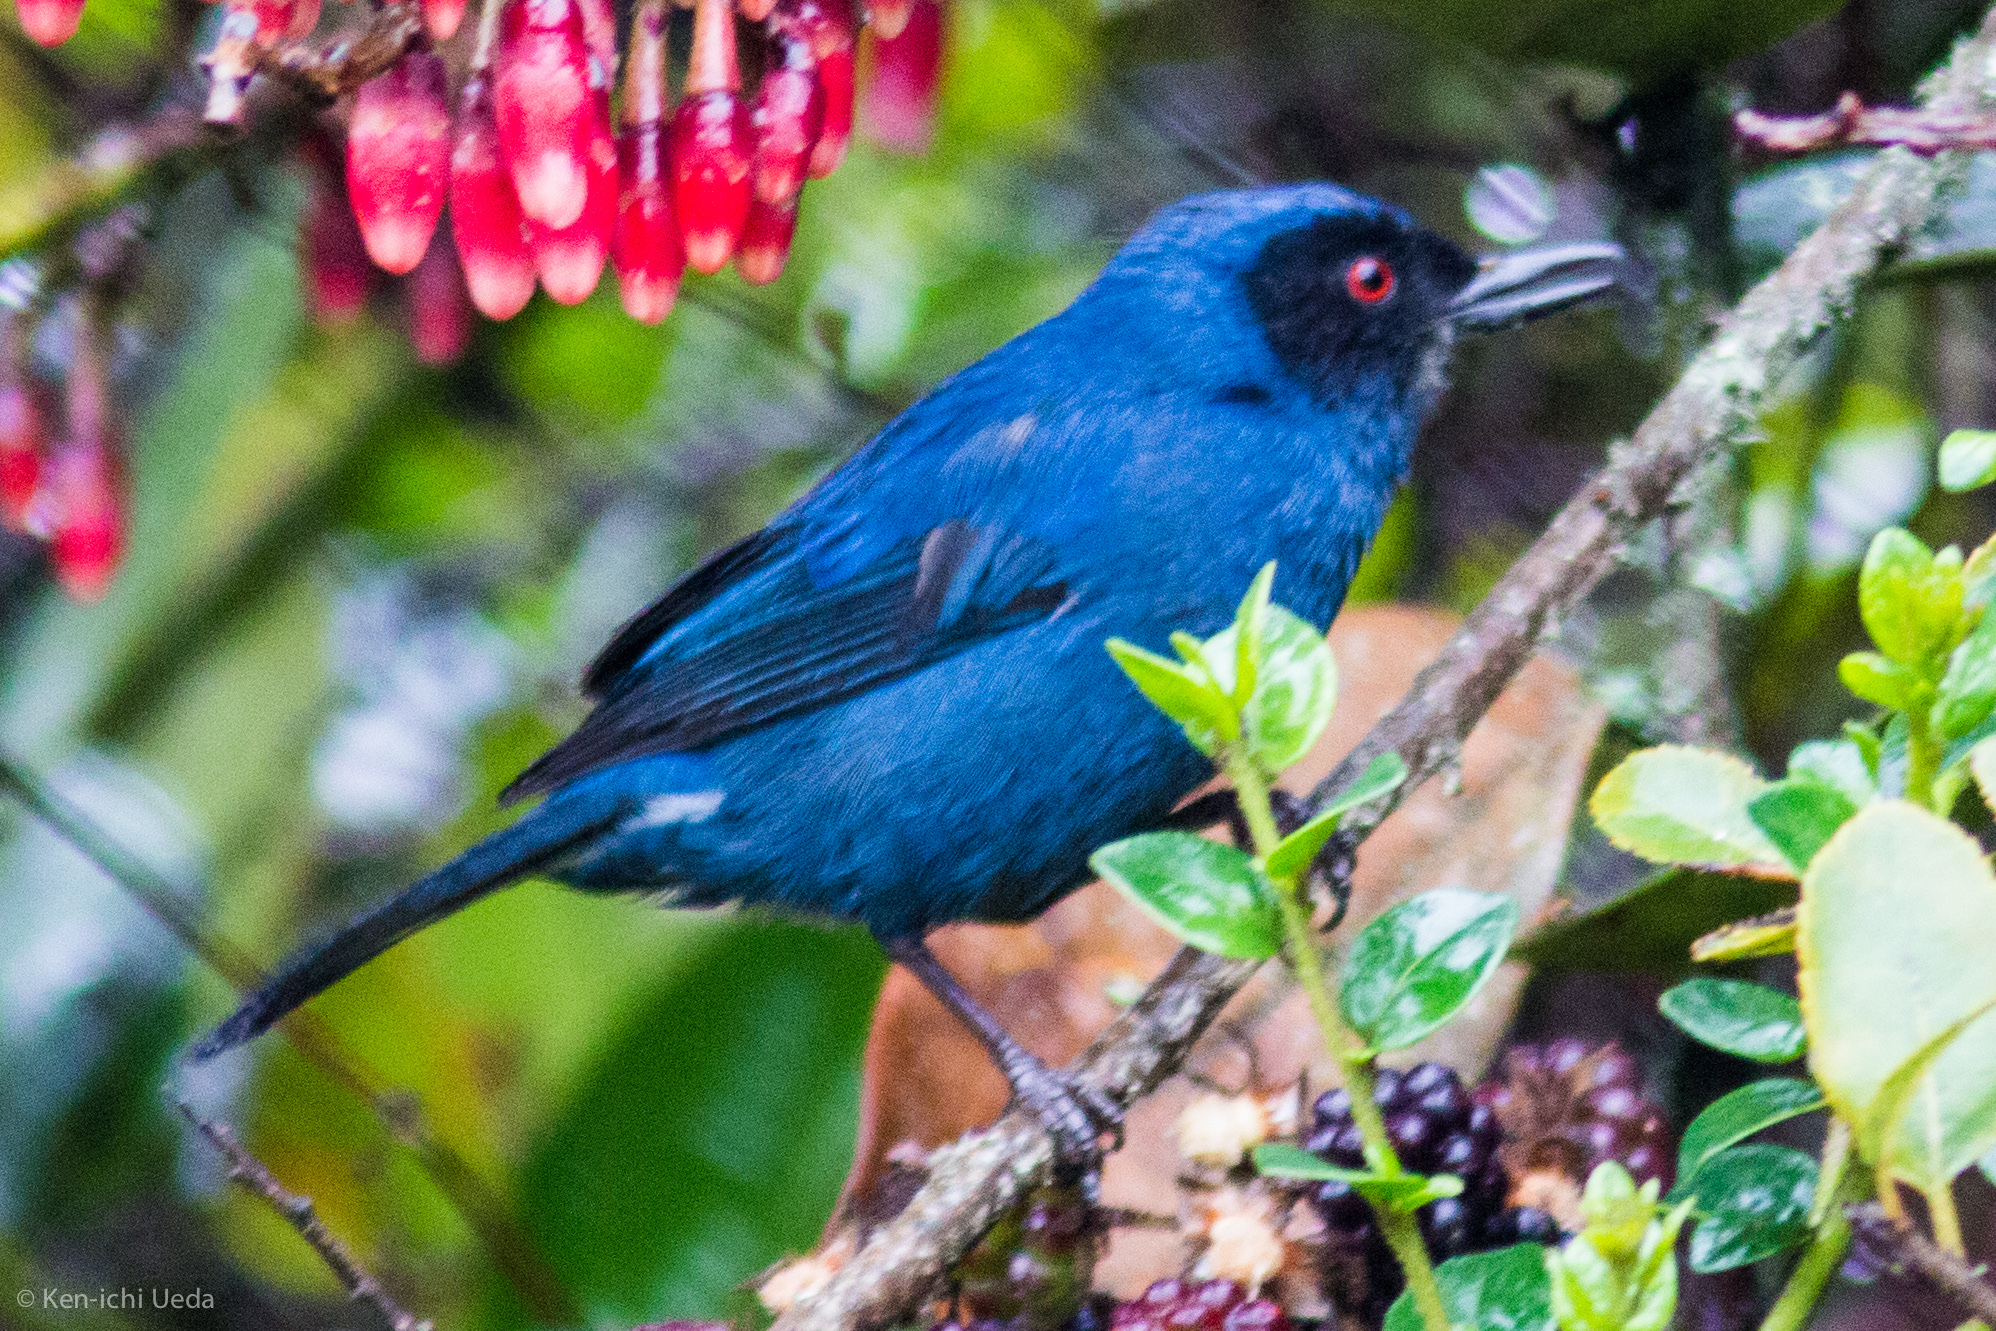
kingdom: Animalia
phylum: Chordata
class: Aves
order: Passeriformes
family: Thraupidae
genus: Diglossa
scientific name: Diglossa cyanea
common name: Masked flowerpiercer
